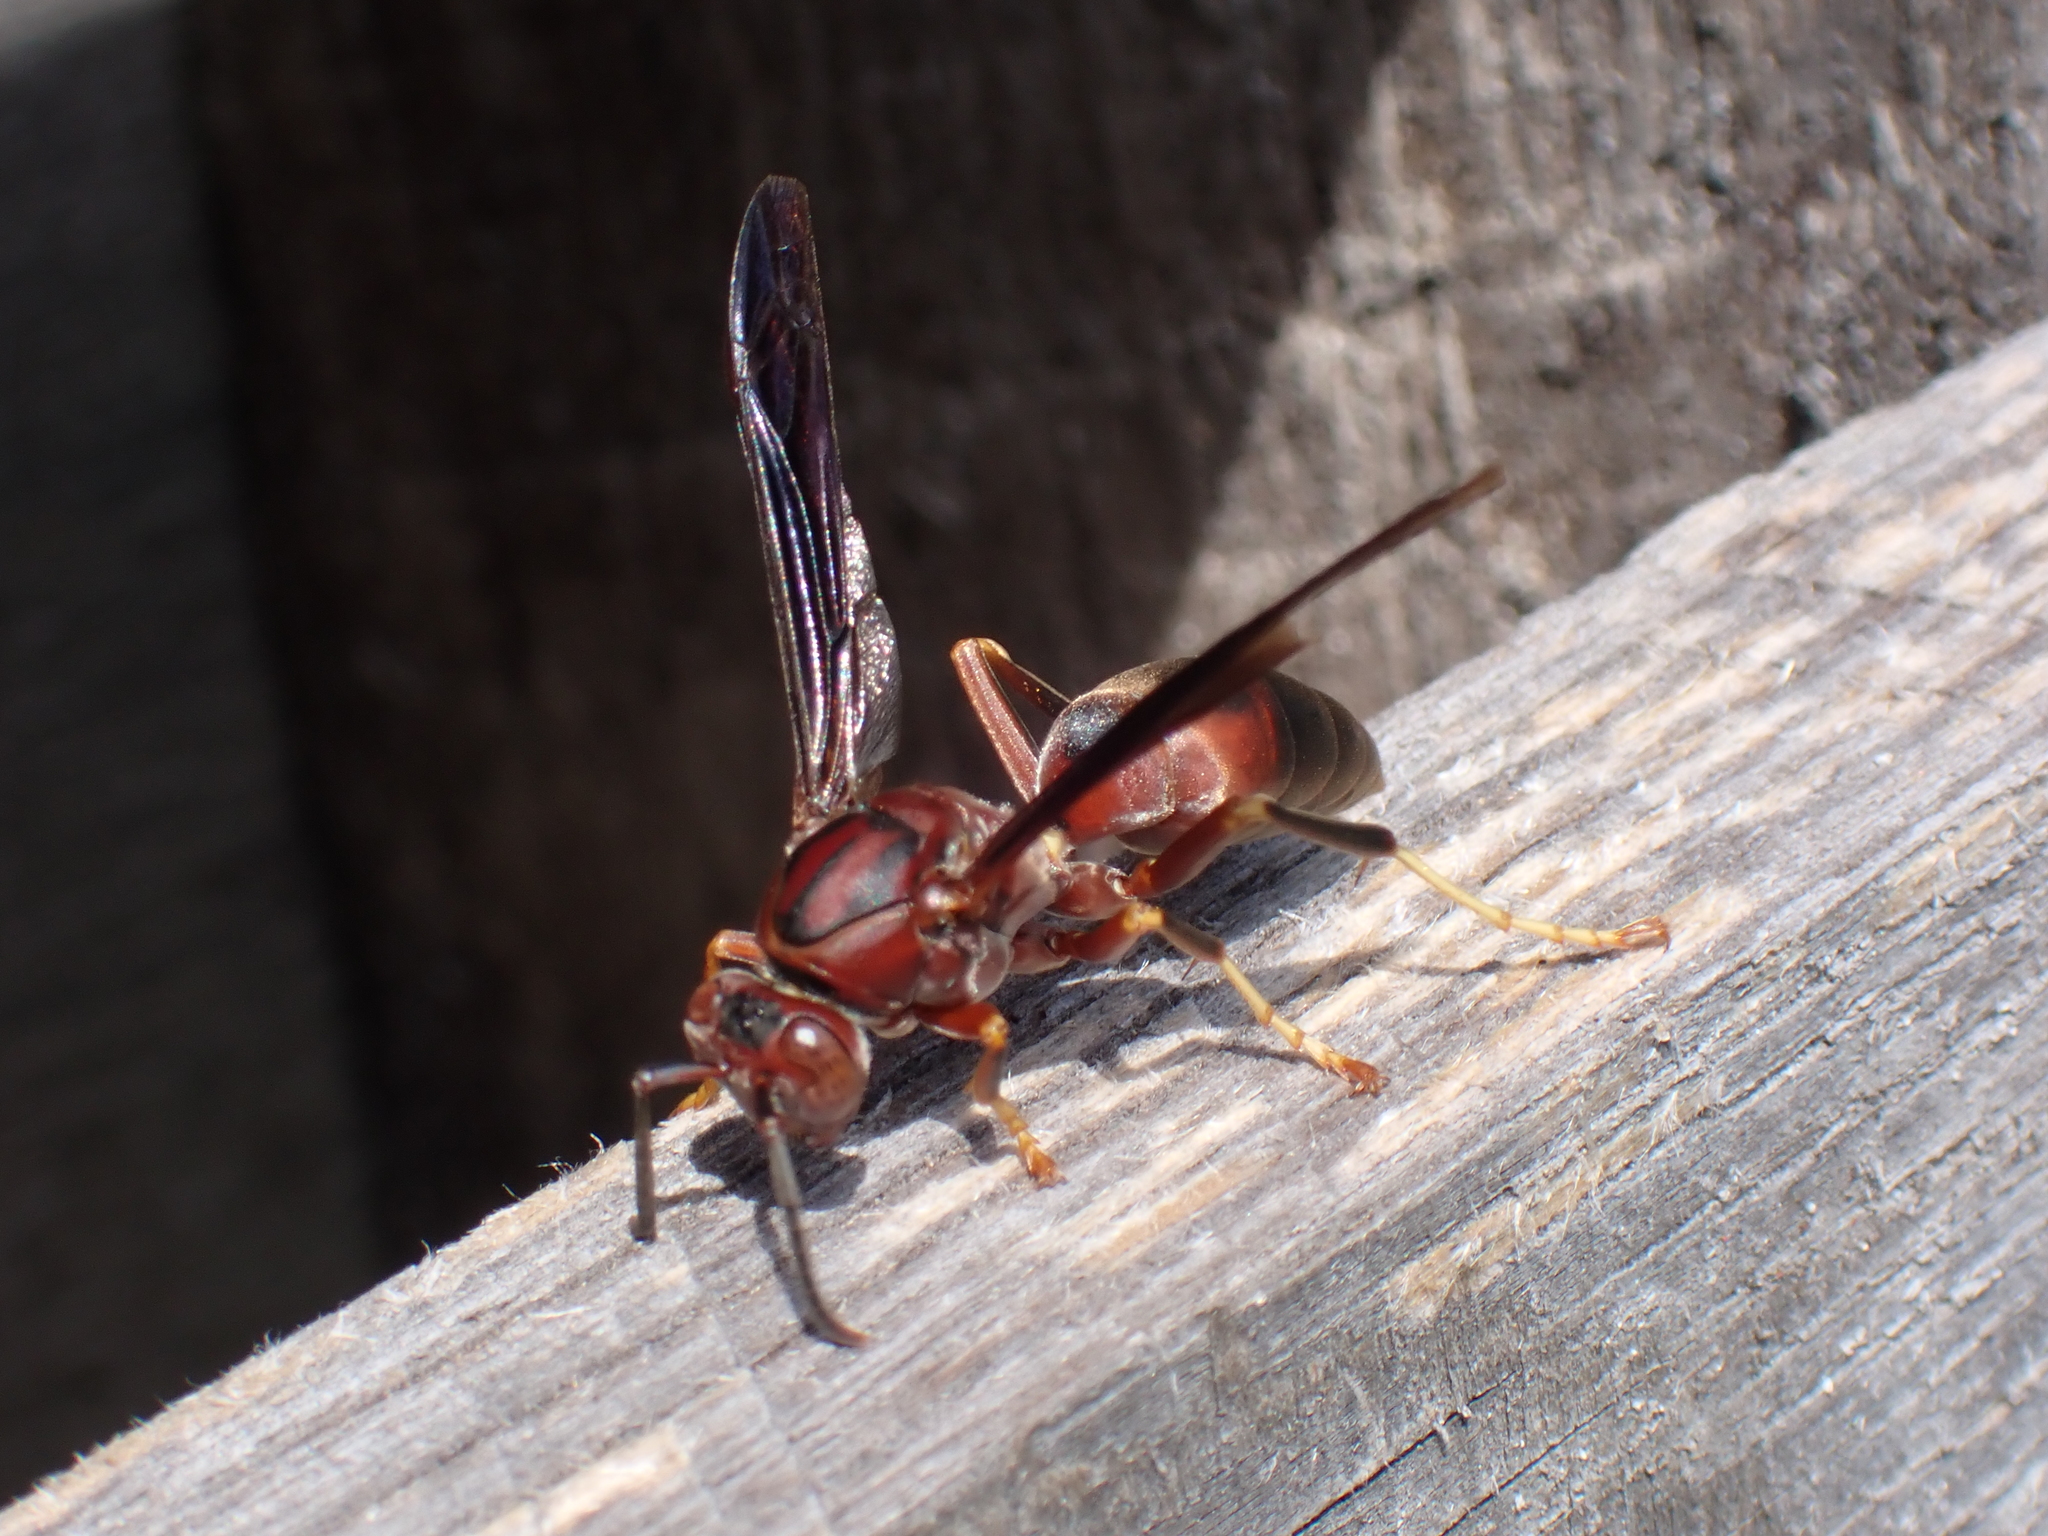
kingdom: Animalia
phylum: Arthropoda
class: Insecta
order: Hymenoptera
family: Eumenidae
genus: Polistes
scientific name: Polistes metricus
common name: Metric paper wasp
